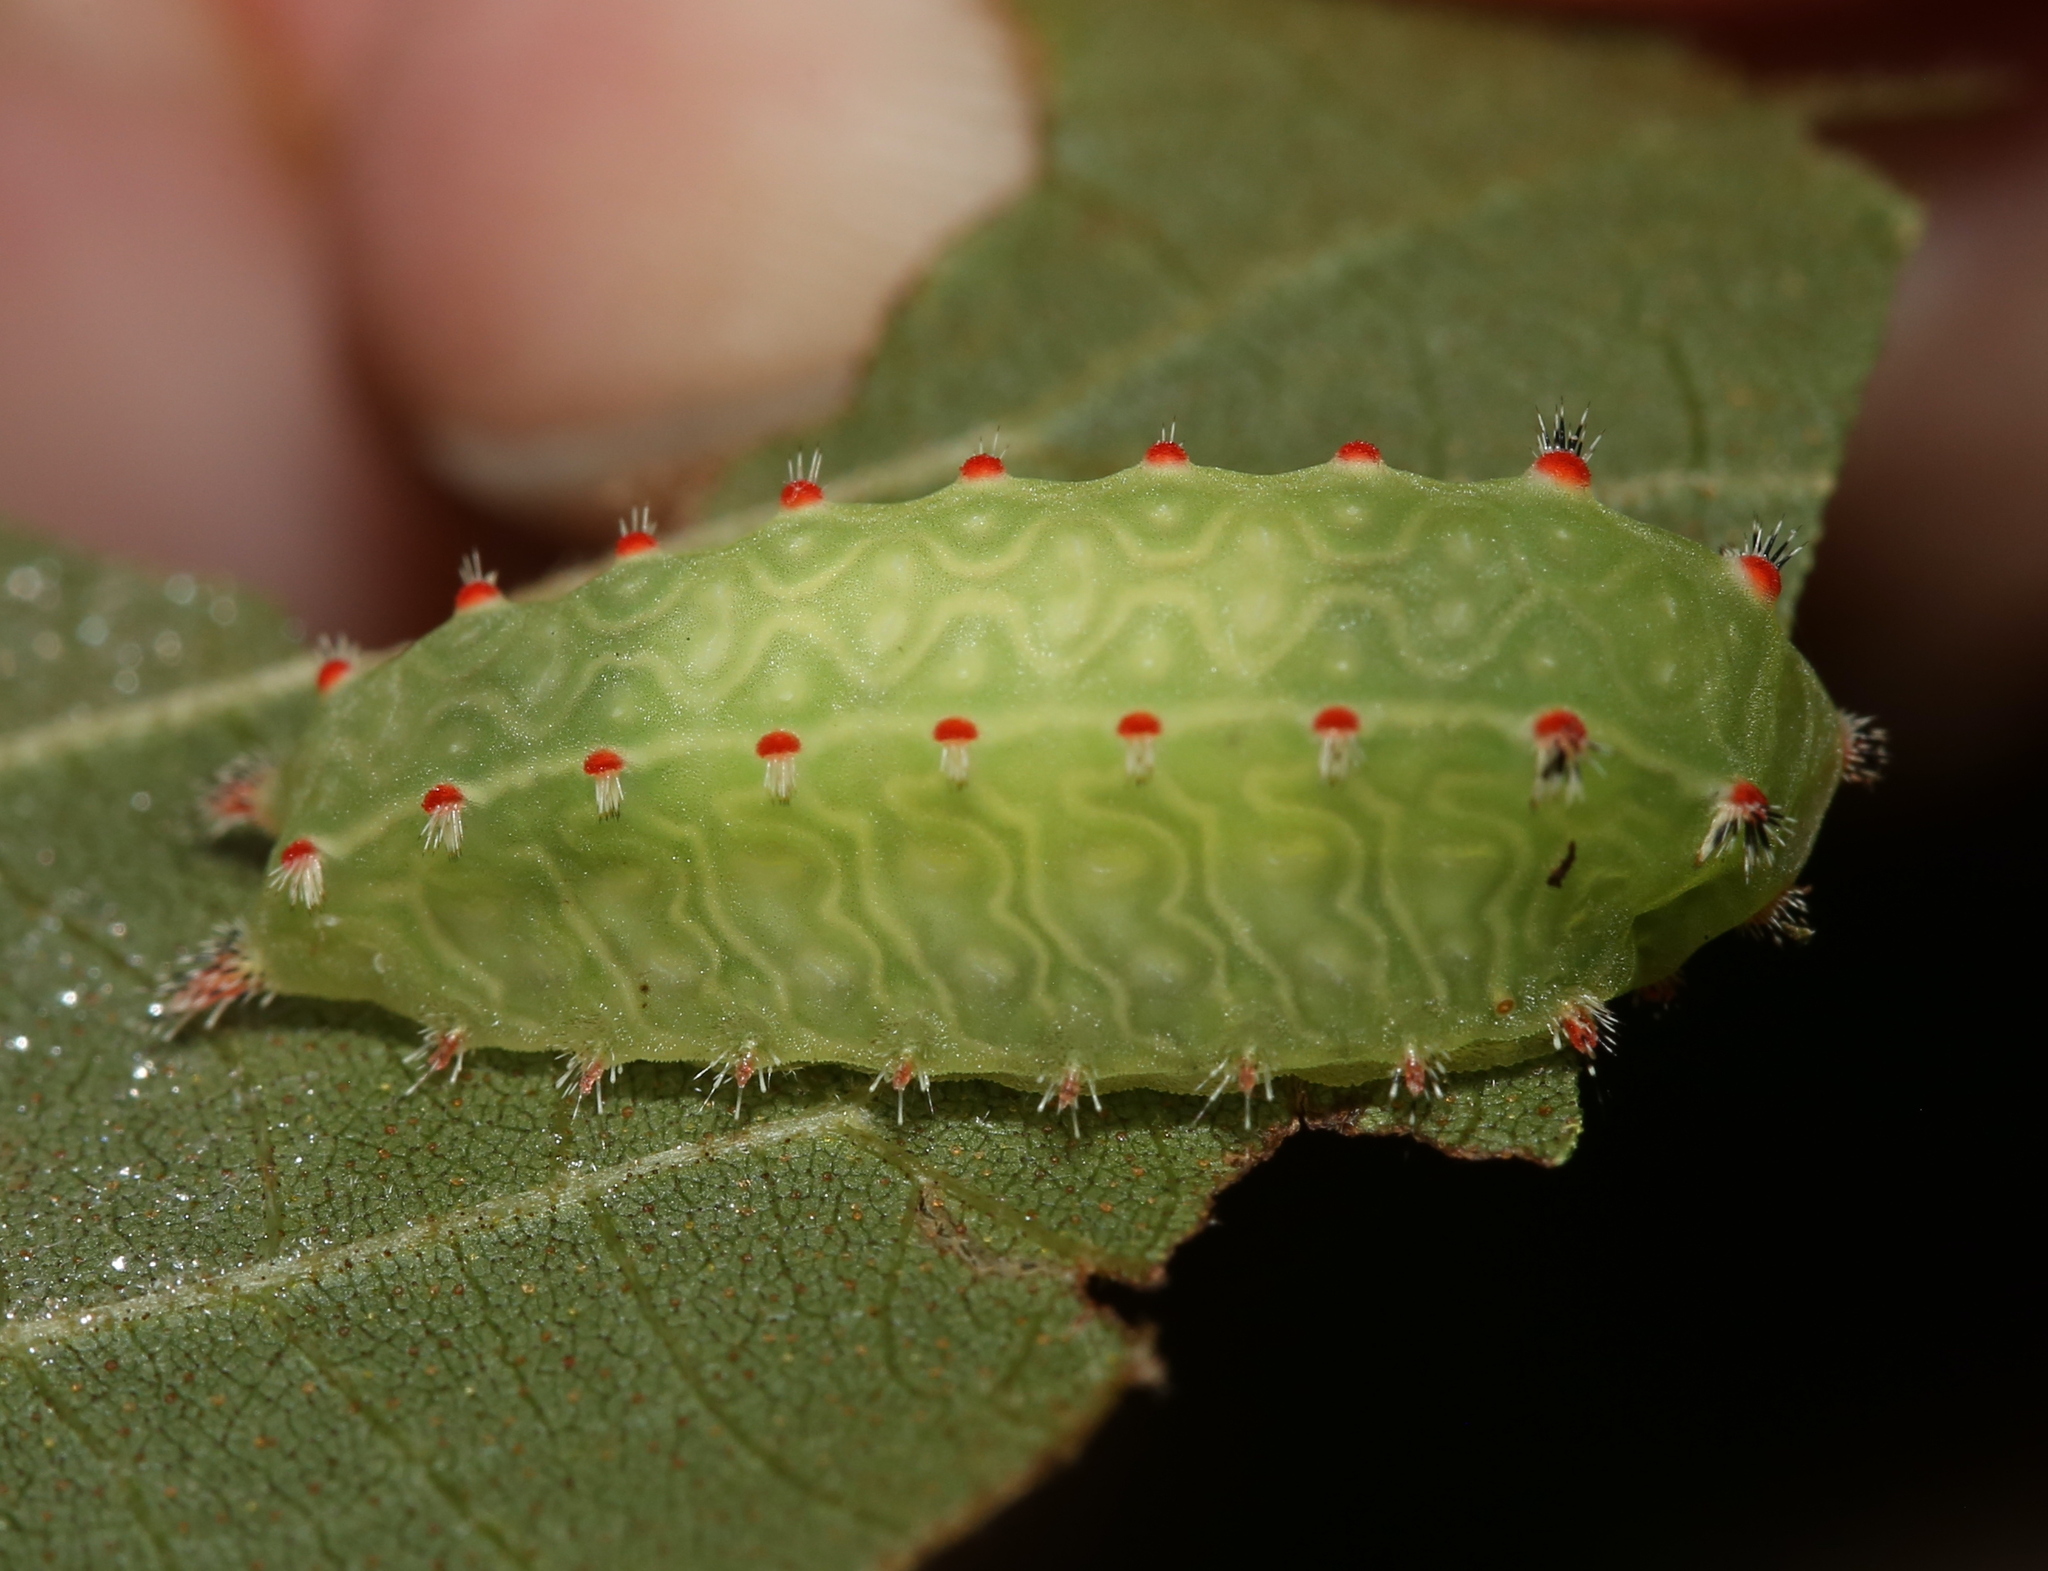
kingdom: Animalia
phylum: Arthropoda
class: Insecta
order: Lepidoptera
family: Limacodidae
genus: Natada
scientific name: Natada nasoni
